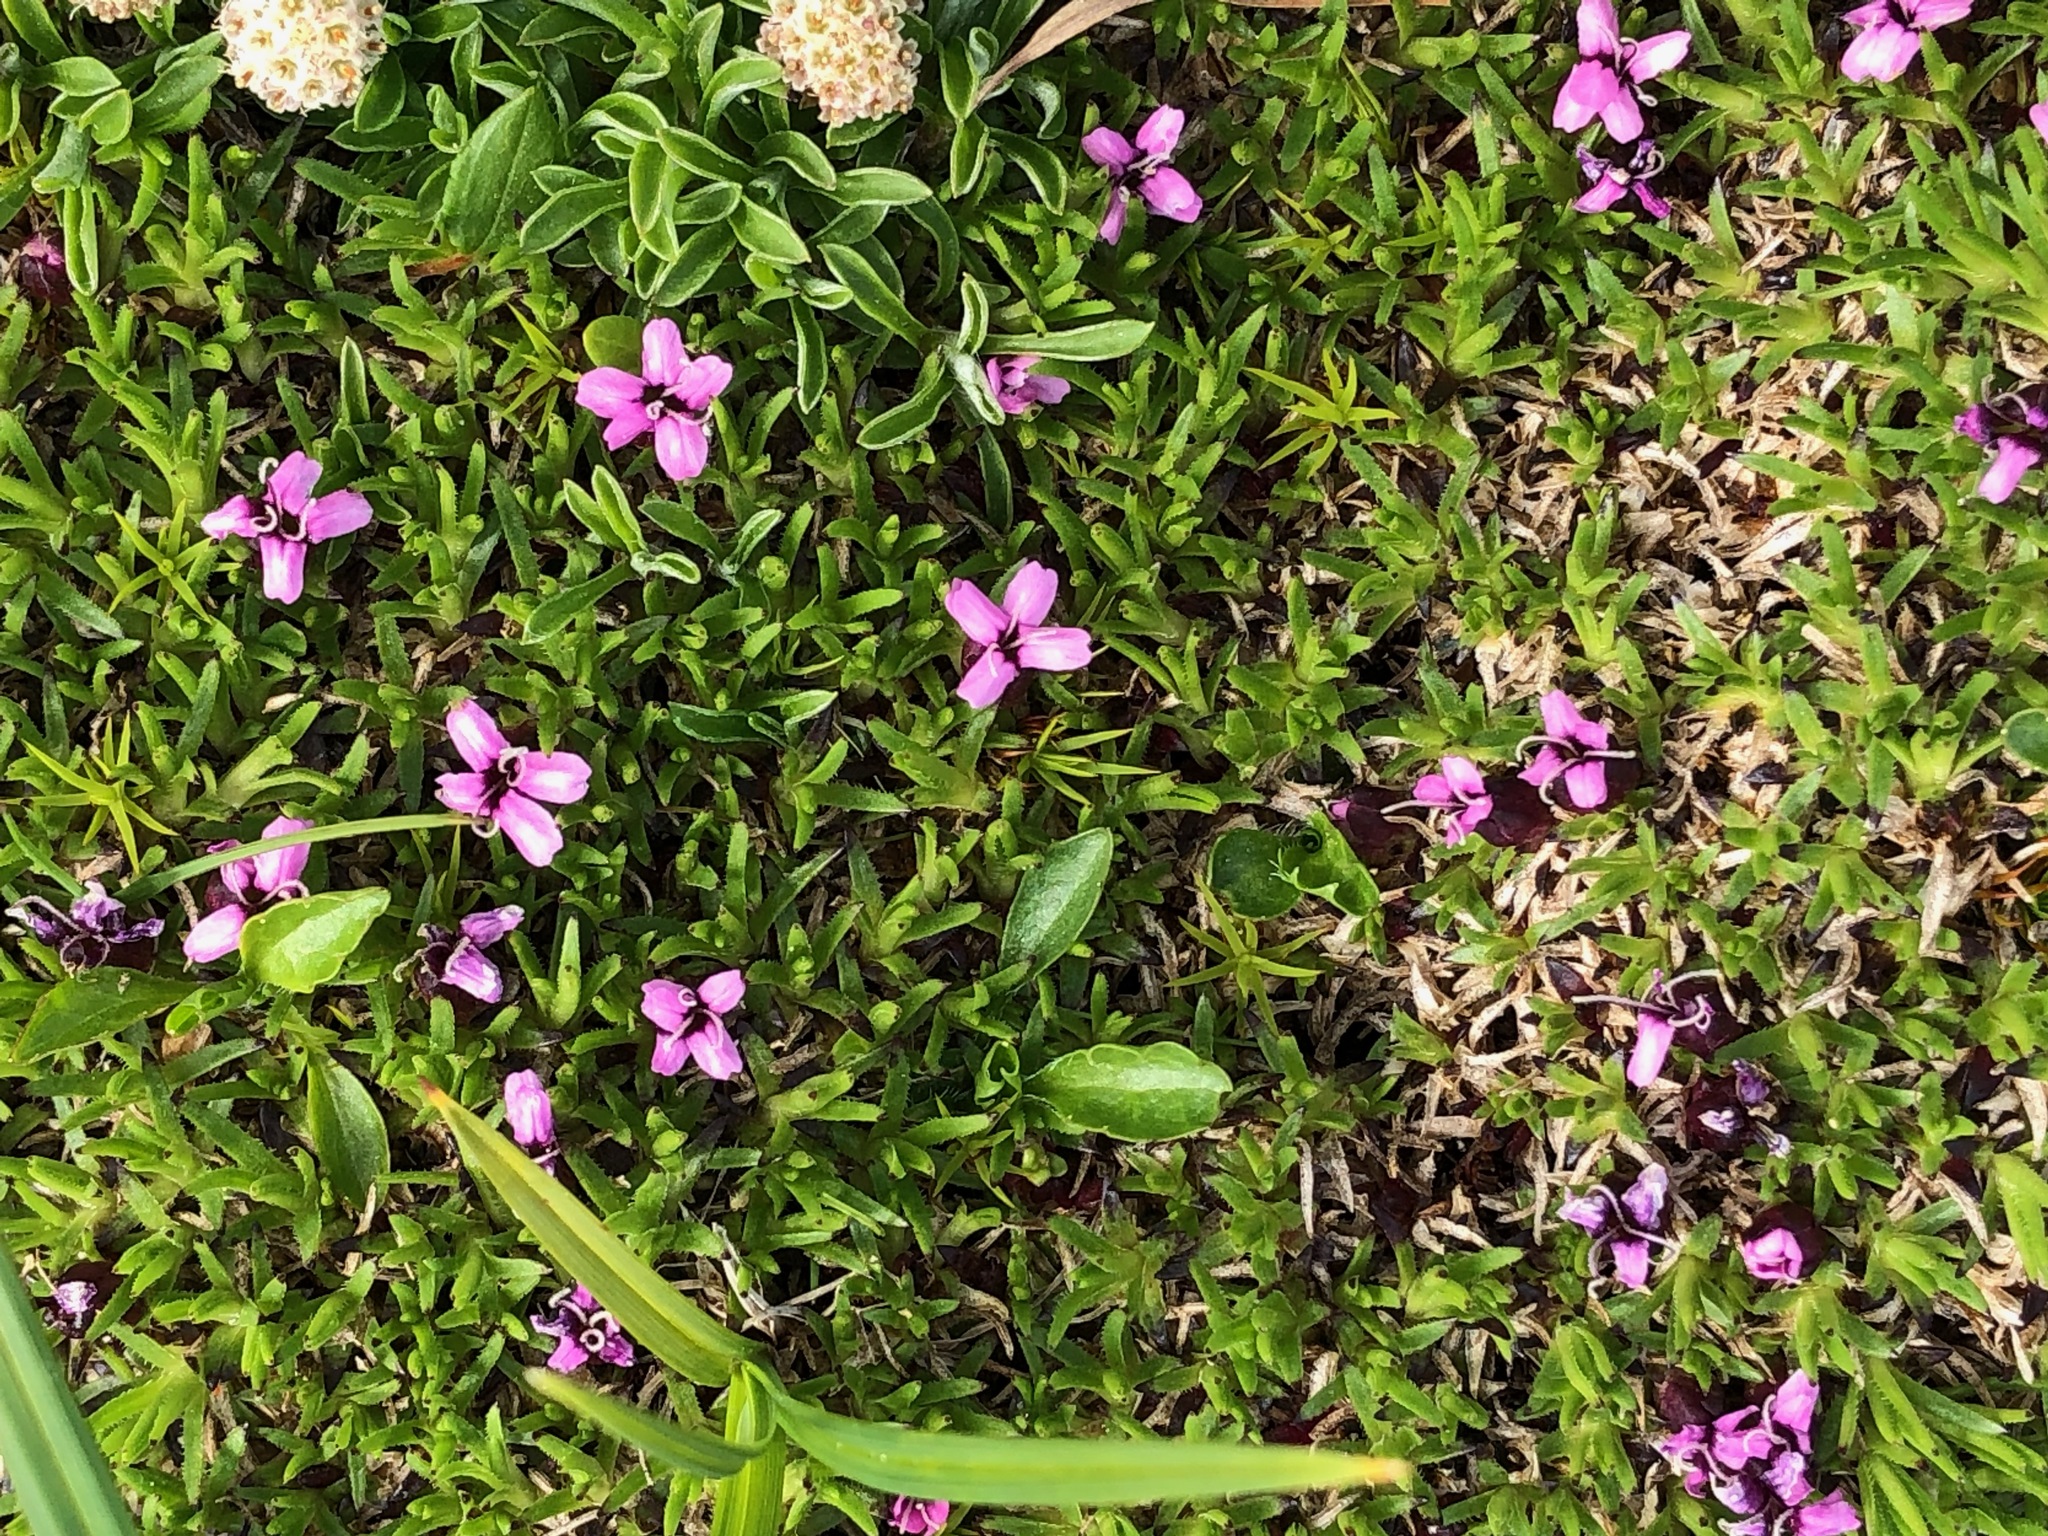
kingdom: Plantae
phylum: Tracheophyta
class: Magnoliopsida
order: Caryophyllales
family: Caryophyllaceae
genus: Silene
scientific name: Silene acaulis
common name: Moss campion
